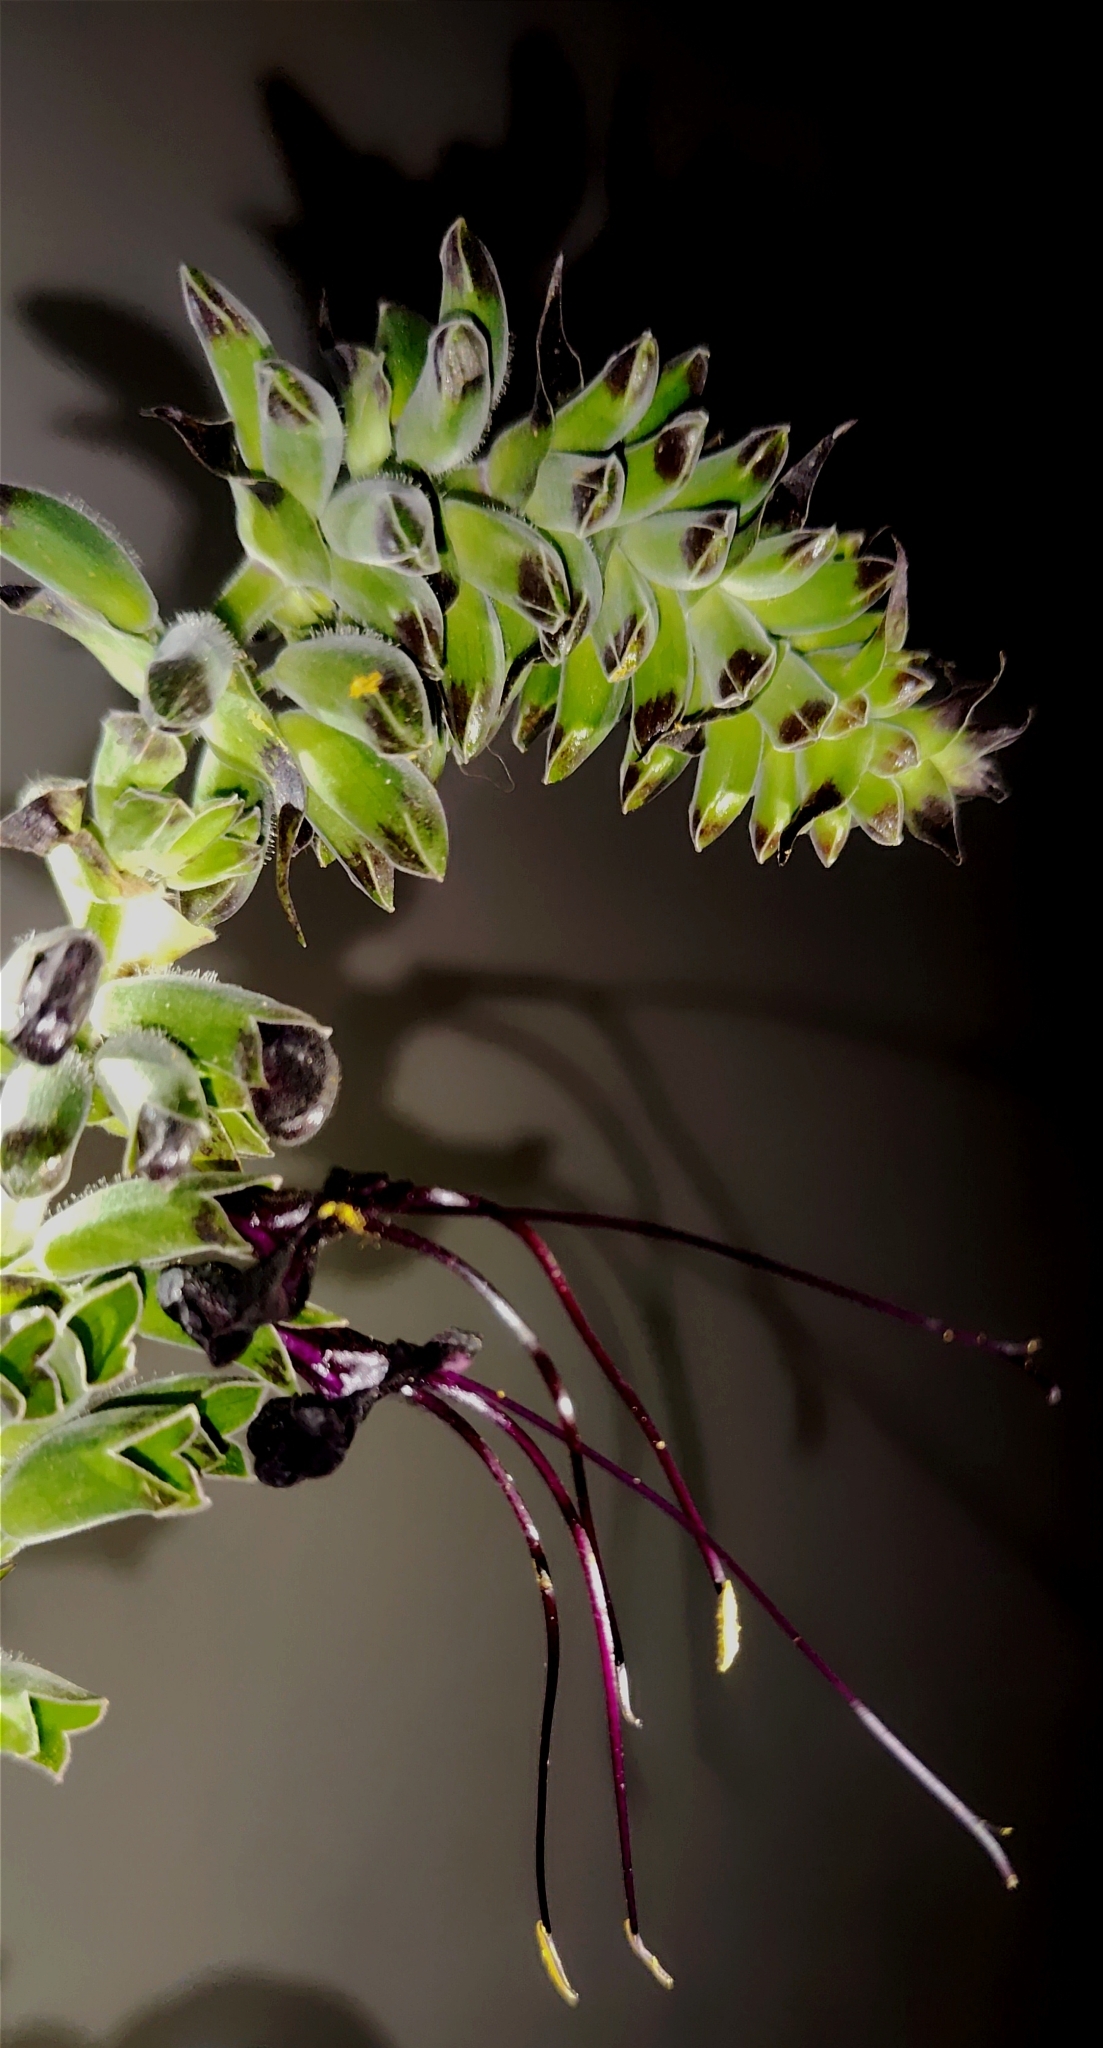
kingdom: Plantae
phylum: Tracheophyta
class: Magnoliopsida
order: Lamiales
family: Lamiaceae
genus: Salvia
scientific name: Salvia speciosa
